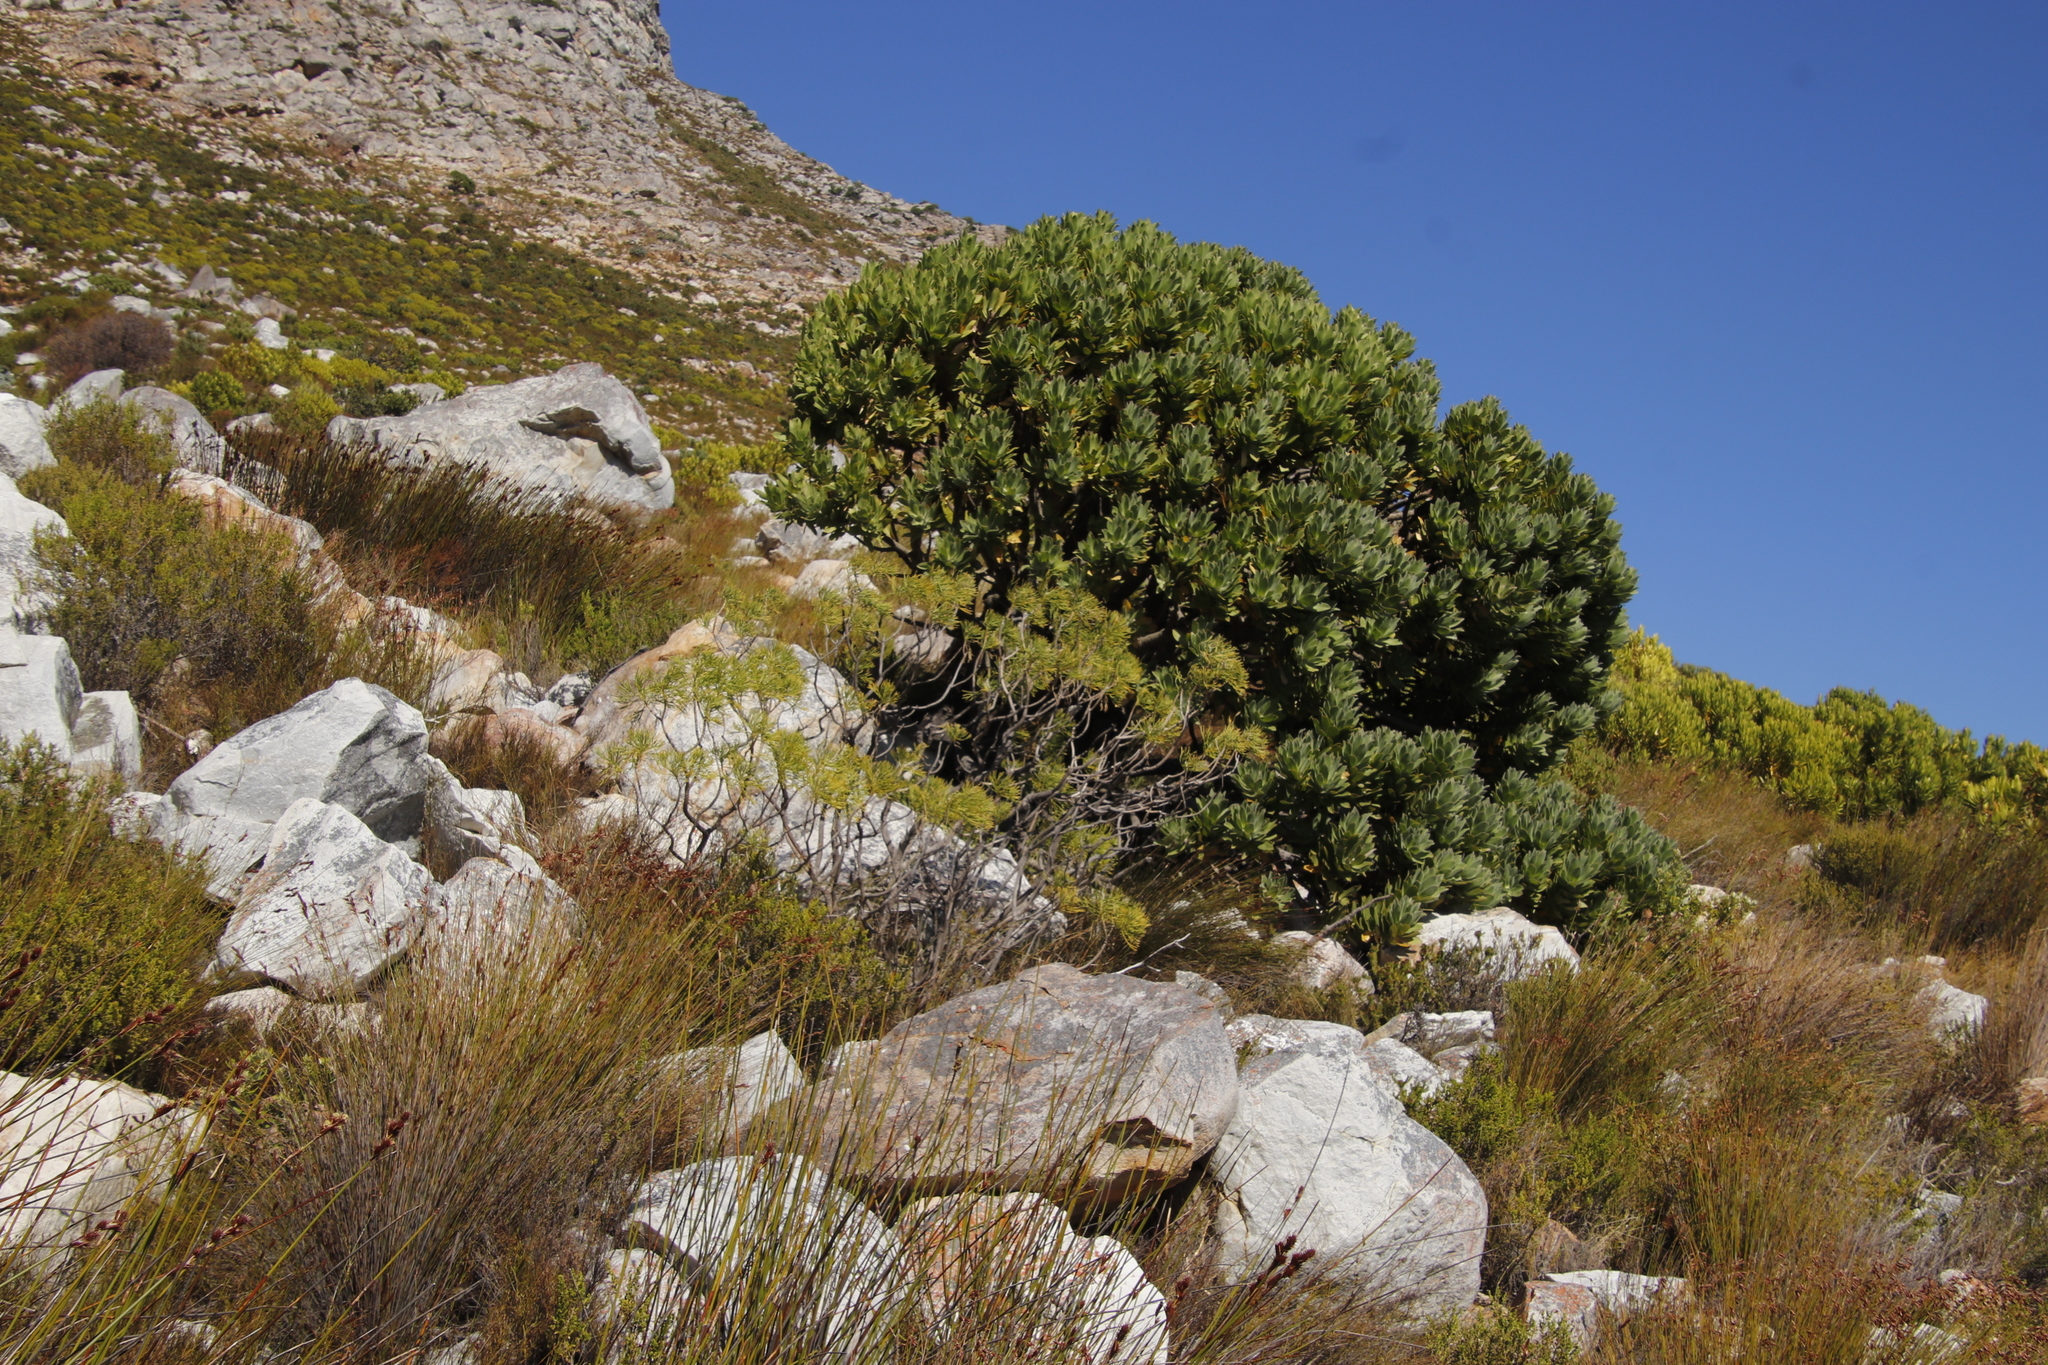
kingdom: Plantae
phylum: Tracheophyta
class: Magnoliopsida
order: Proteales
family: Proteaceae
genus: Leucospermum
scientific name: Leucospermum conocarpodendron
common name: Tree pincushion
